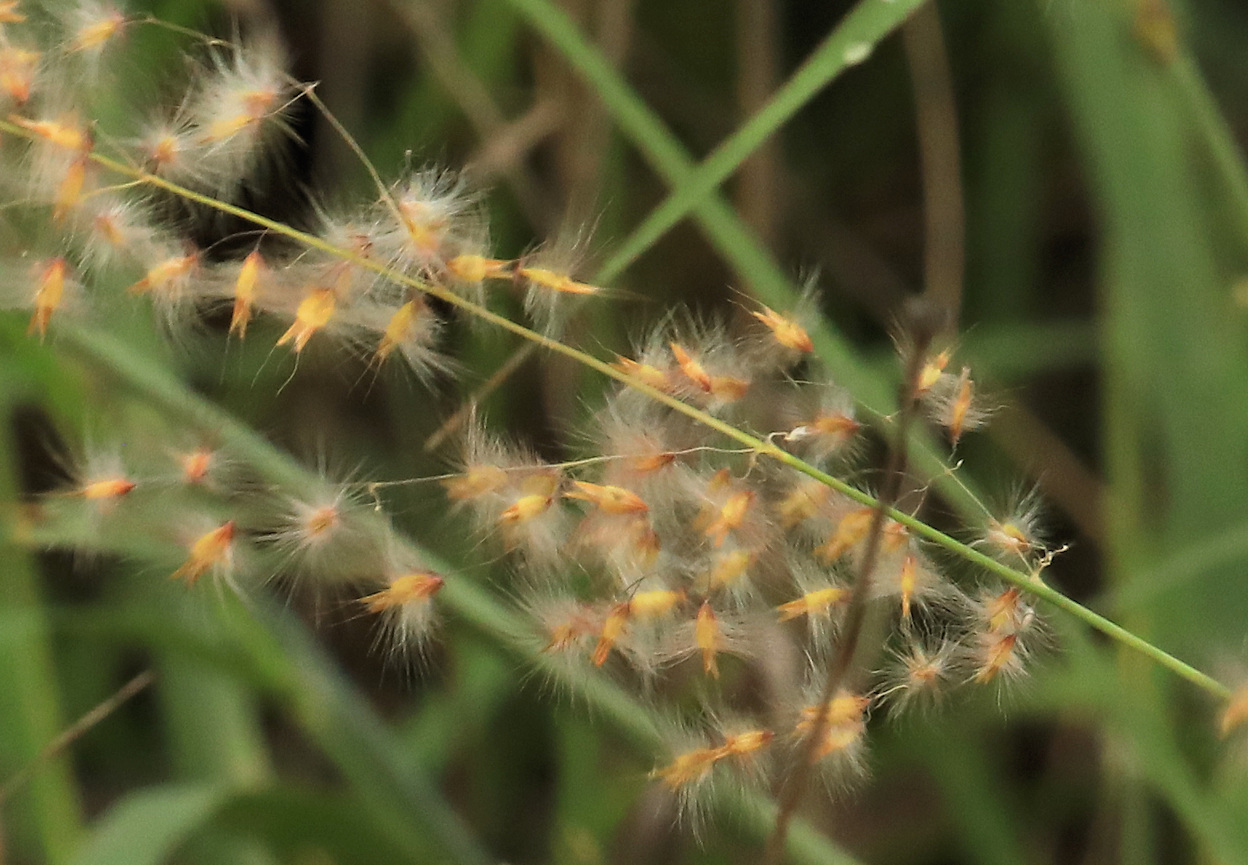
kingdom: Plantae
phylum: Tracheophyta
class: Liliopsida
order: Poales
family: Poaceae
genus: Melinis
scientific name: Melinis repens
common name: Rose natal grass
